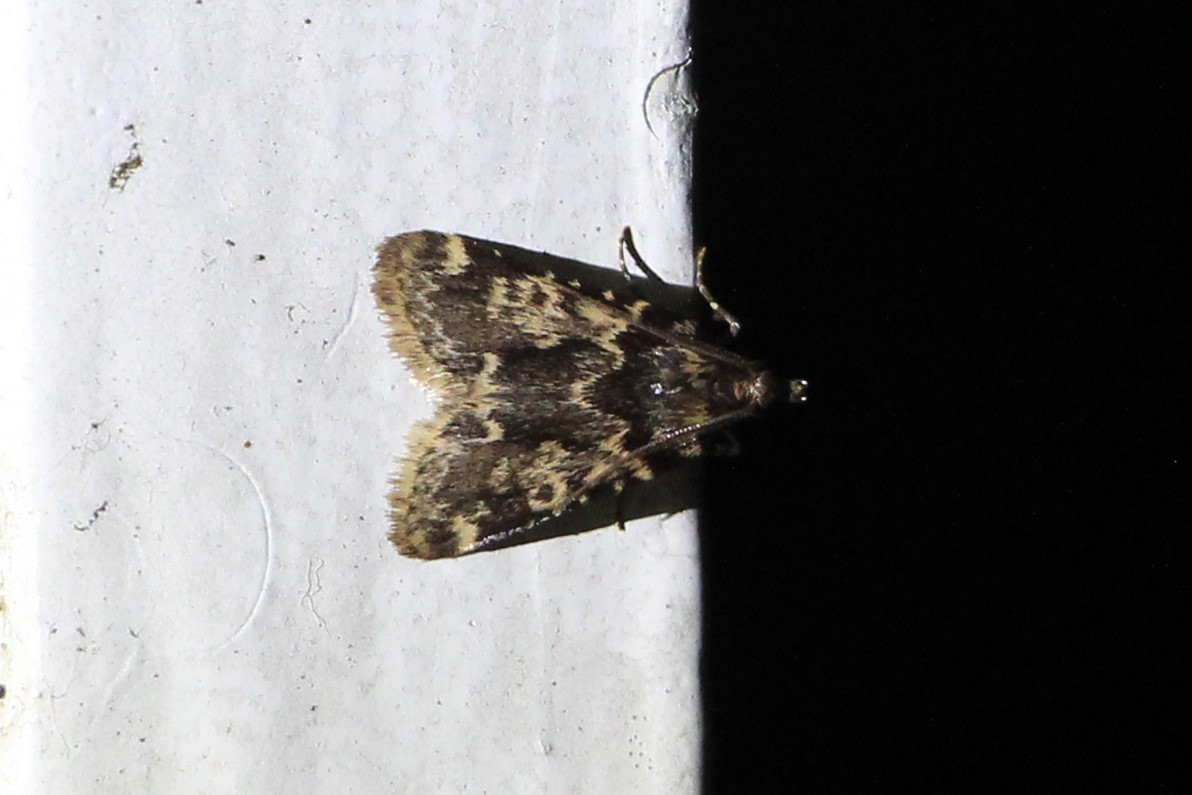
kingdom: Animalia
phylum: Arthropoda
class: Insecta
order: Lepidoptera
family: Pyralidae
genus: Aglossa
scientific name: Aglossa caprealis
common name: Small tabby
